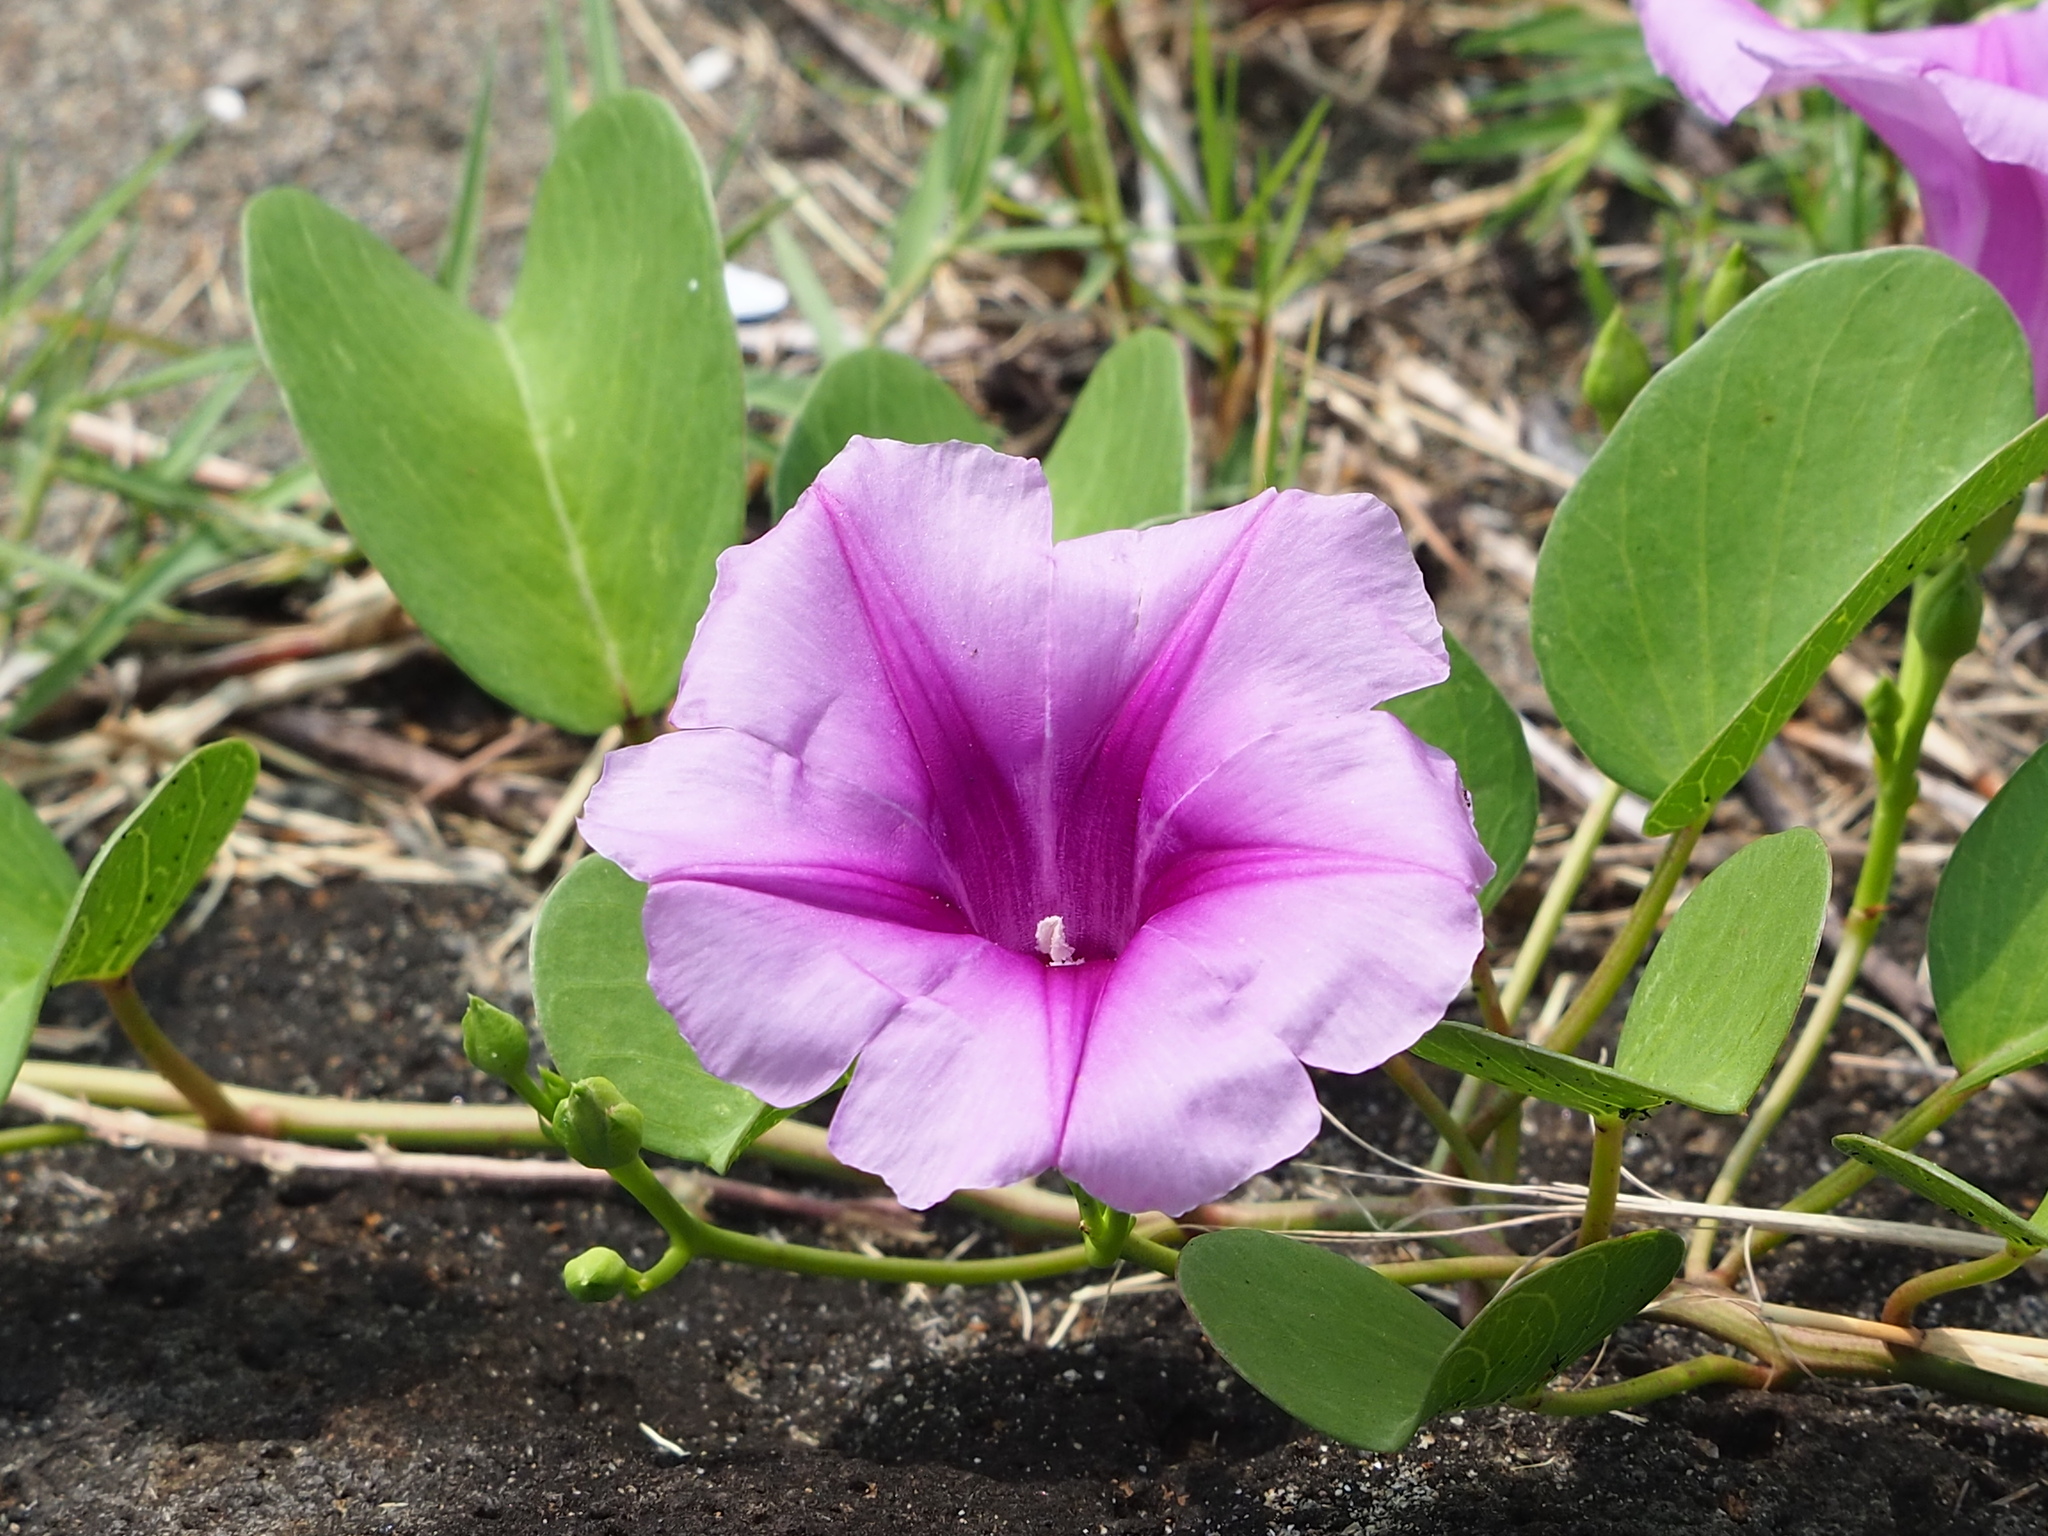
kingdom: Plantae
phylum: Tracheophyta
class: Magnoliopsida
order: Solanales
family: Convolvulaceae
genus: Ipomoea
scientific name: Ipomoea pes-caprae
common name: Beach morning glory
